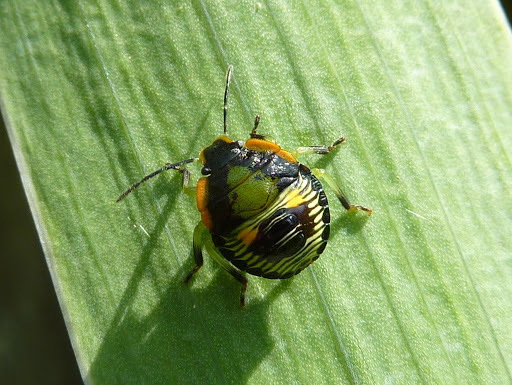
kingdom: Animalia
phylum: Arthropoda
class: Insecta
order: Hemiptera
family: Pentatomidae
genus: Chinavia
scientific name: Chinavia hilaris
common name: Green stink bug
